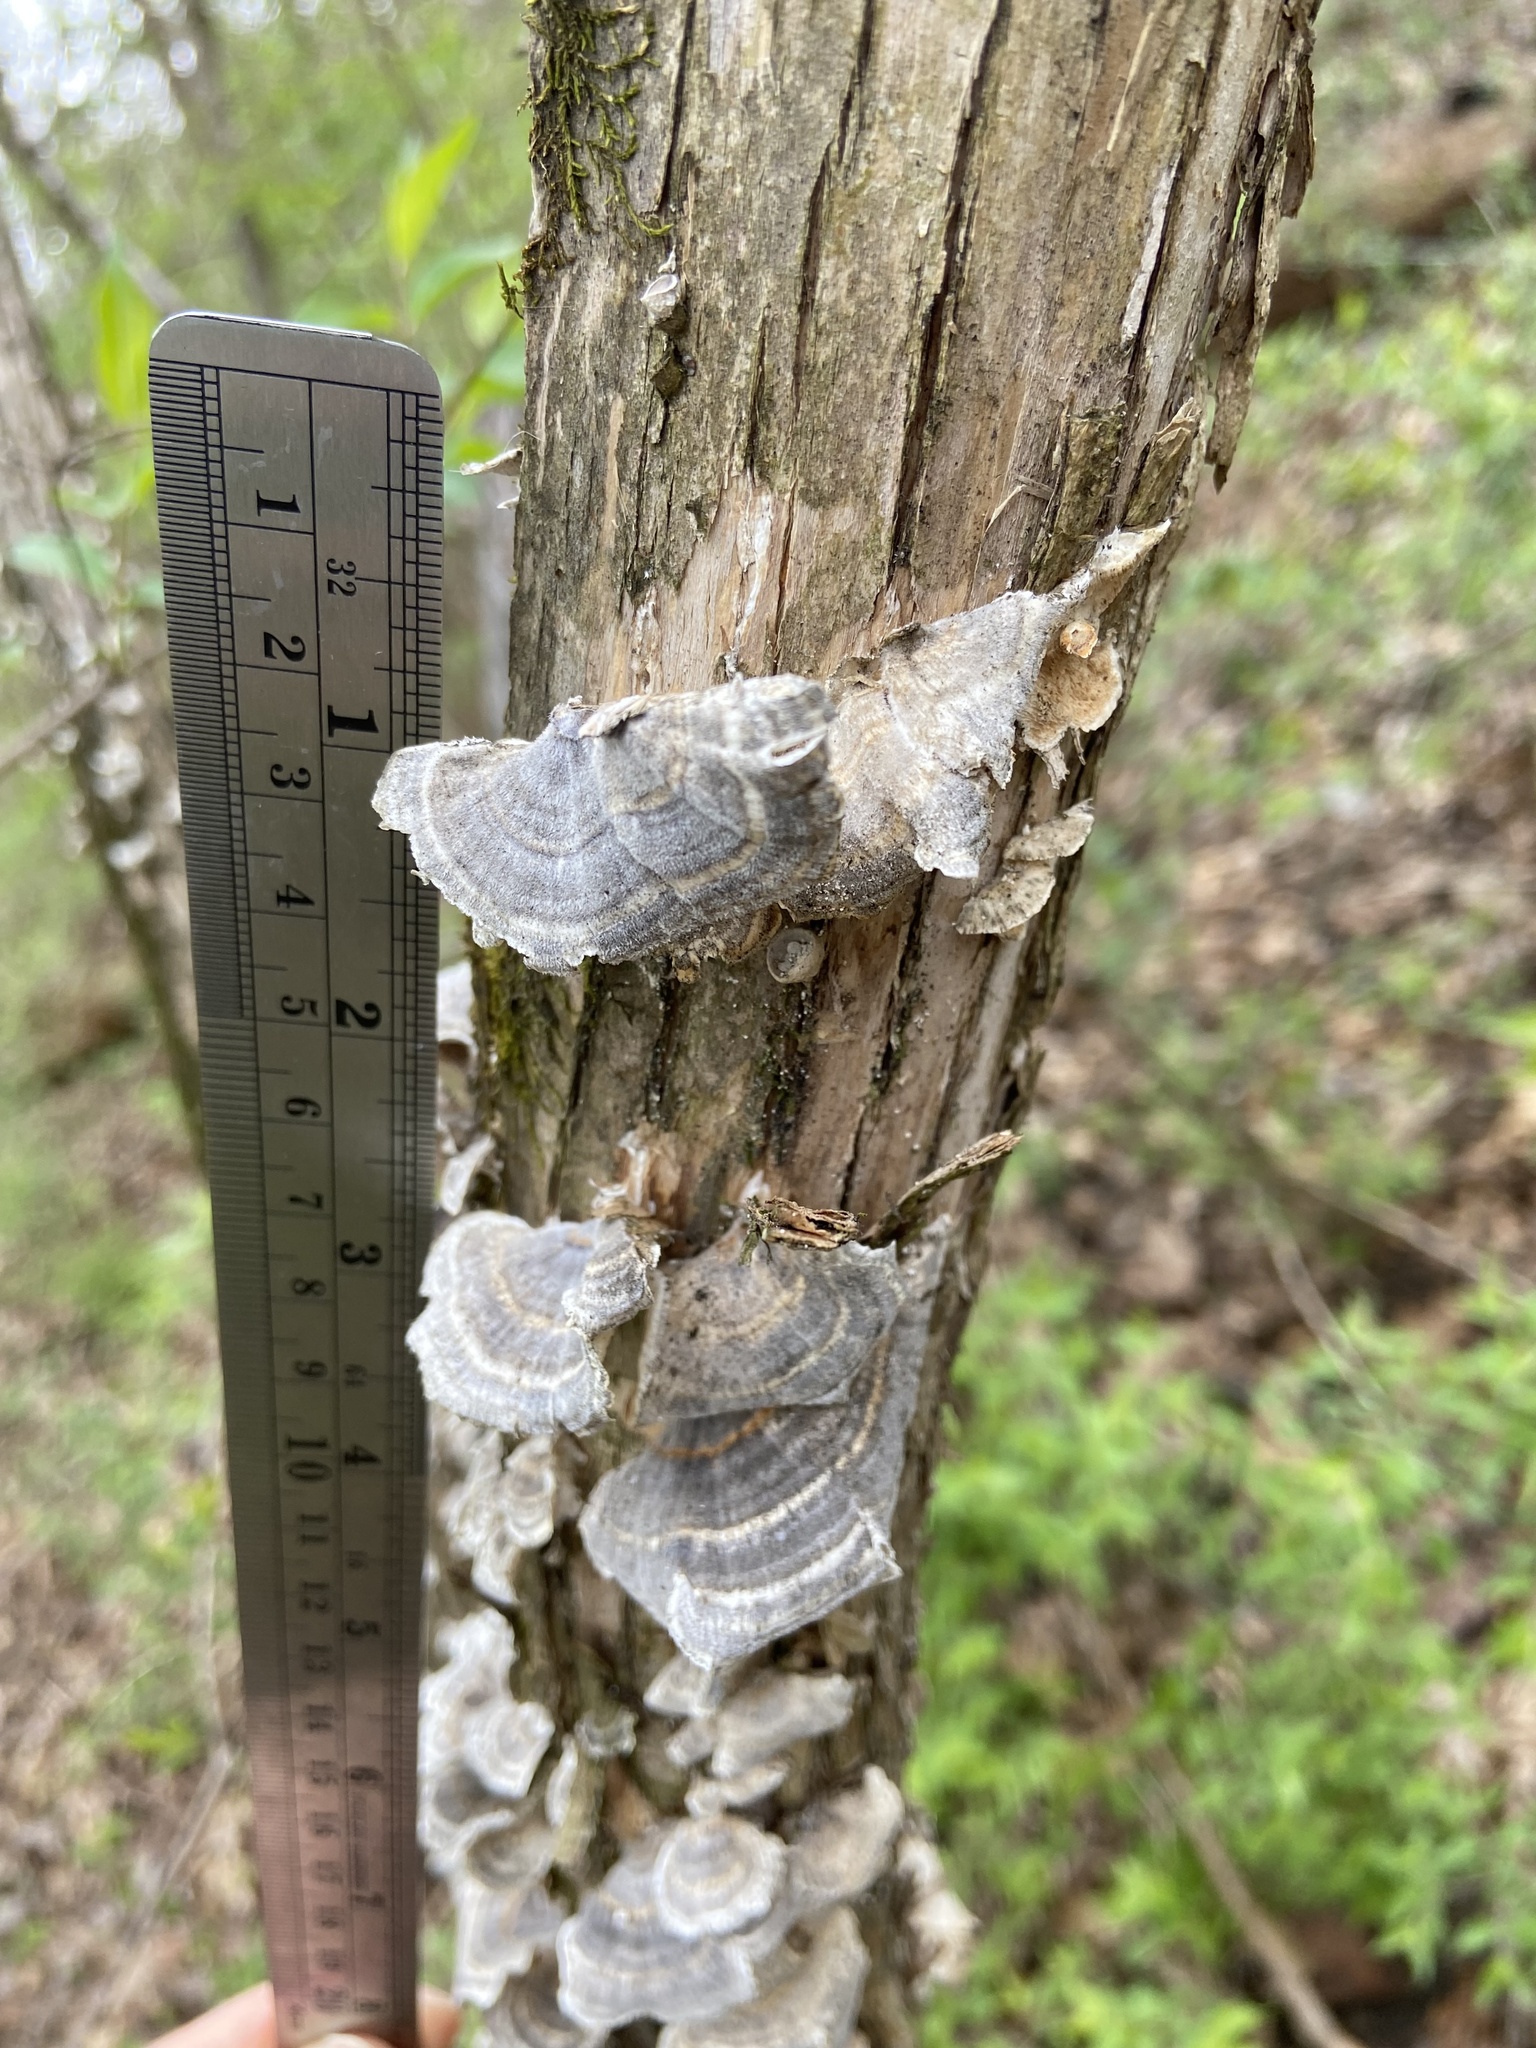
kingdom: Fungi
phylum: Basidiomycota
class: Agaricomycetes
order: Polyporales
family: Polyporaceae
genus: Trametes
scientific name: Trametes versicolor
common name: Turkeytail
